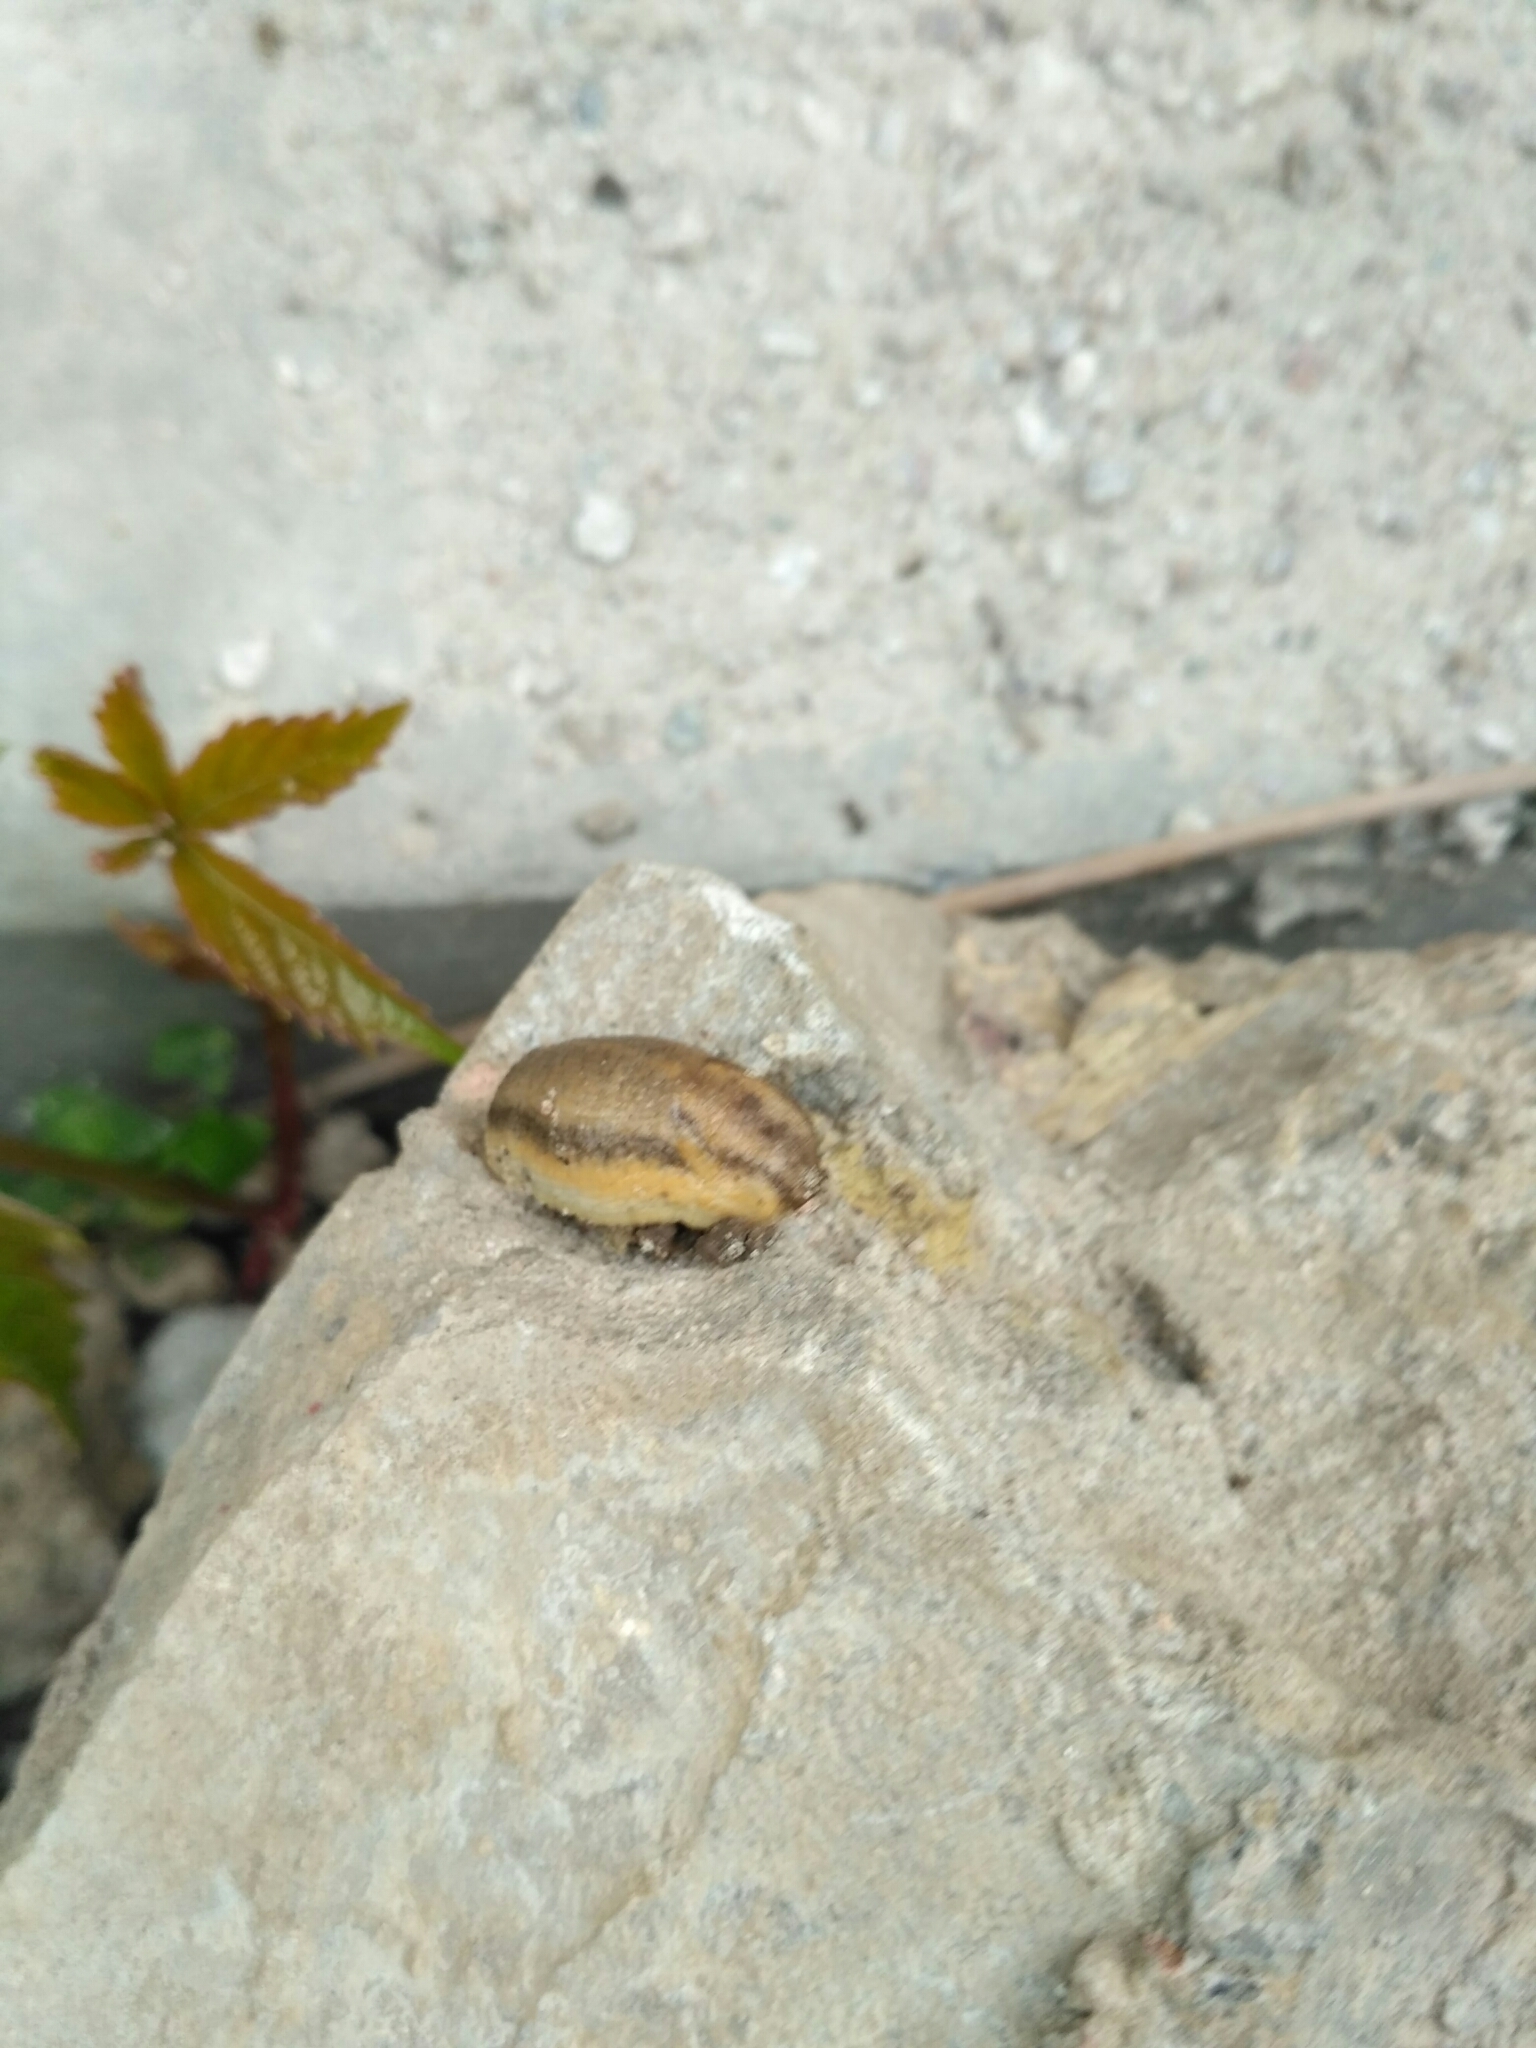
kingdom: Animalia
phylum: Mollusca
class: Gastropoda
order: Stylommatophora
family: Arionidae
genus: Arion
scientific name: Arion fasciatus
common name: Orange-banded arion
